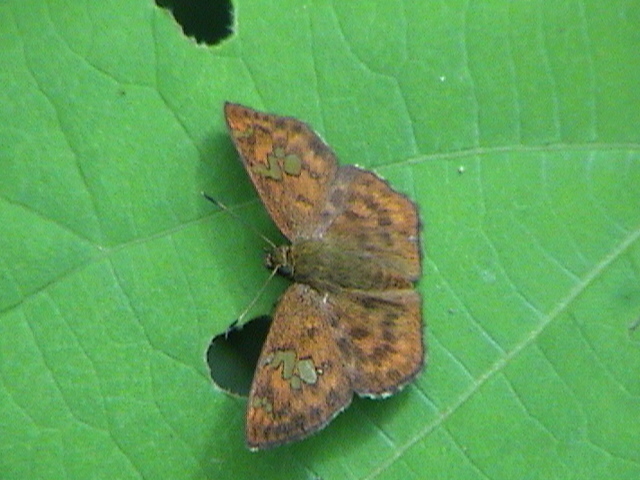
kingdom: Animalia
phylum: Arthropoda
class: Insecta
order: Lepidoptera
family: Hesperiidae
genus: Pseudocoladenia
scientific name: Pseudocoladenia dan
